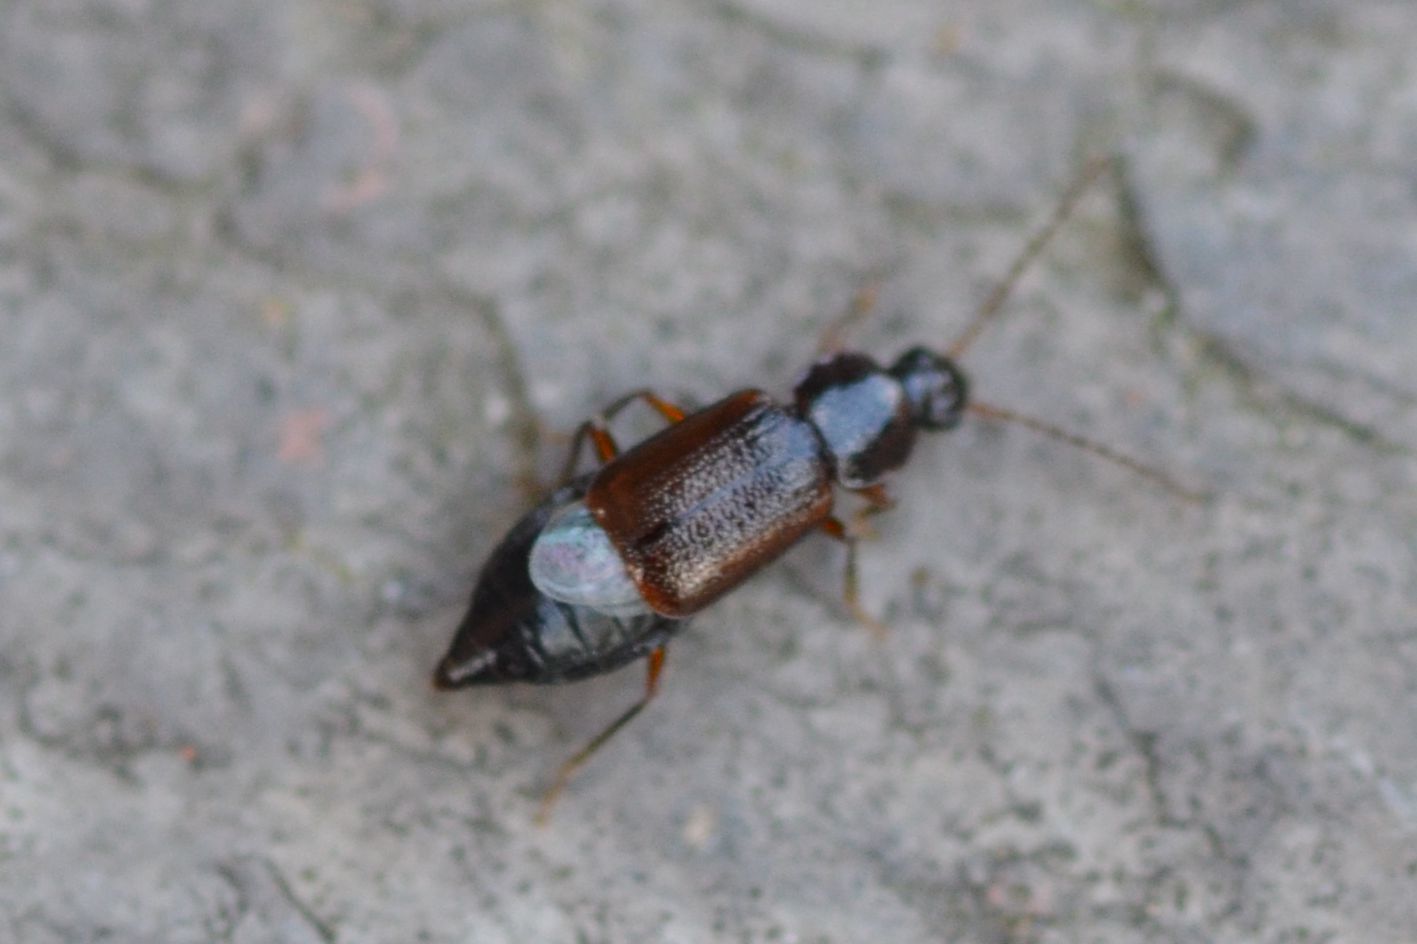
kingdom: Animalia
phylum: Arthropoda
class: Insecta
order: Coleoptera
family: Staphylinidae
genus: Arpedium
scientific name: Arpedium quadrum
